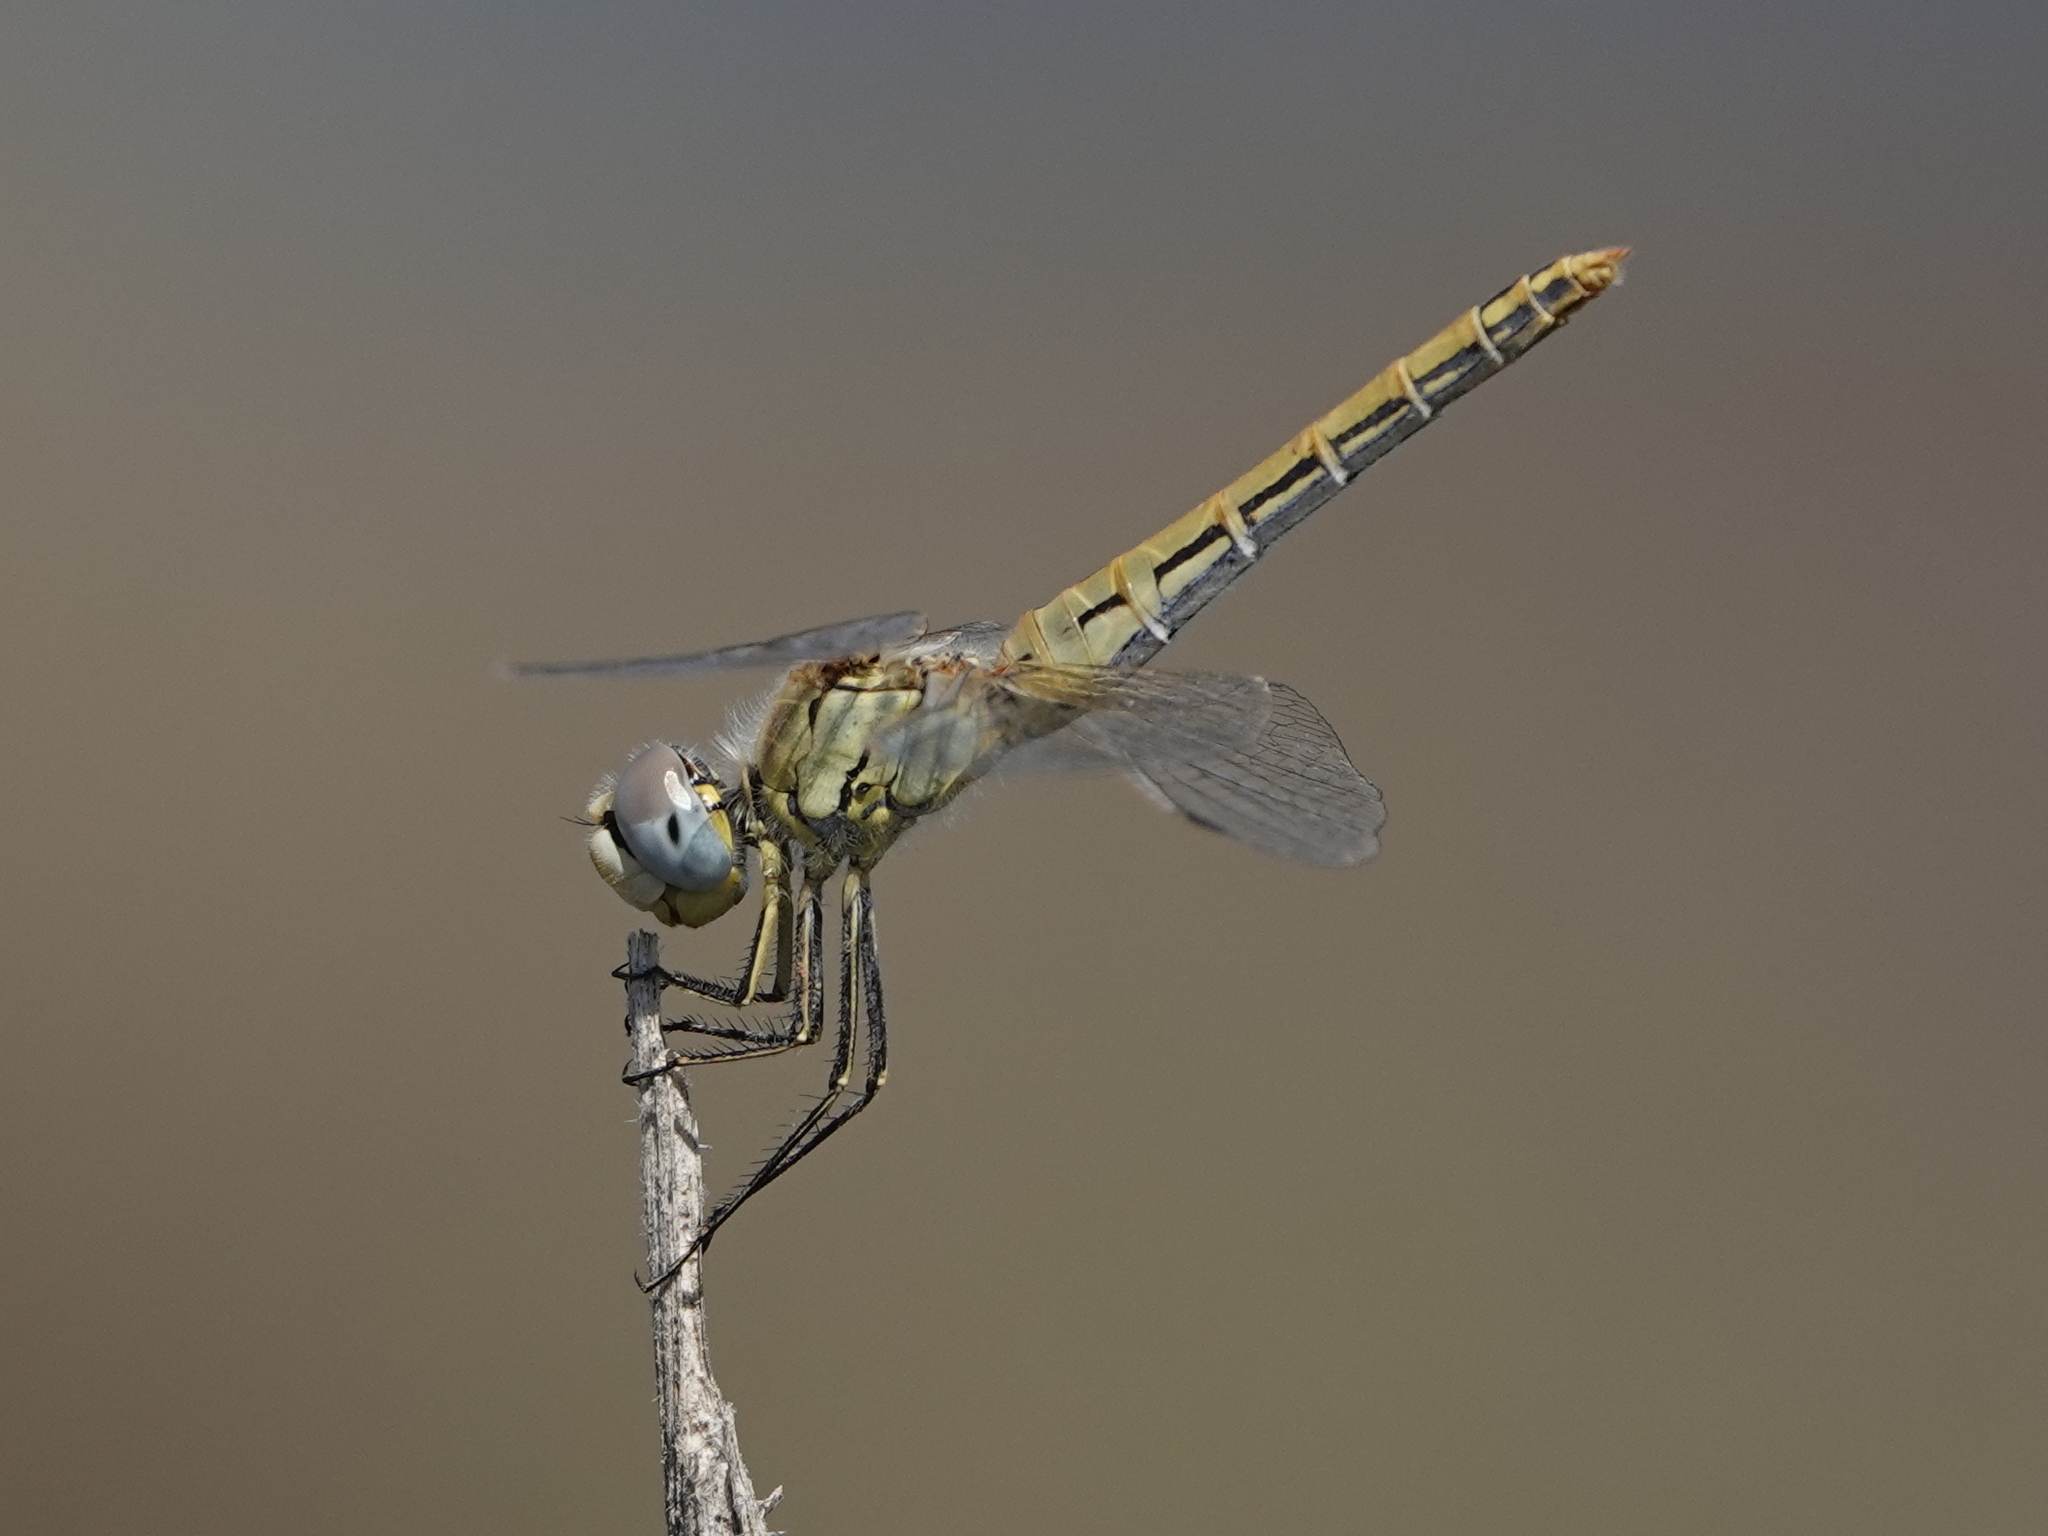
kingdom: Animalia
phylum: Arthropoda
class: Insecta
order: Odonata
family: Libellulidae
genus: Sympetrum
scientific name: Sympetrum fonscolombii
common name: Red-veined darter
